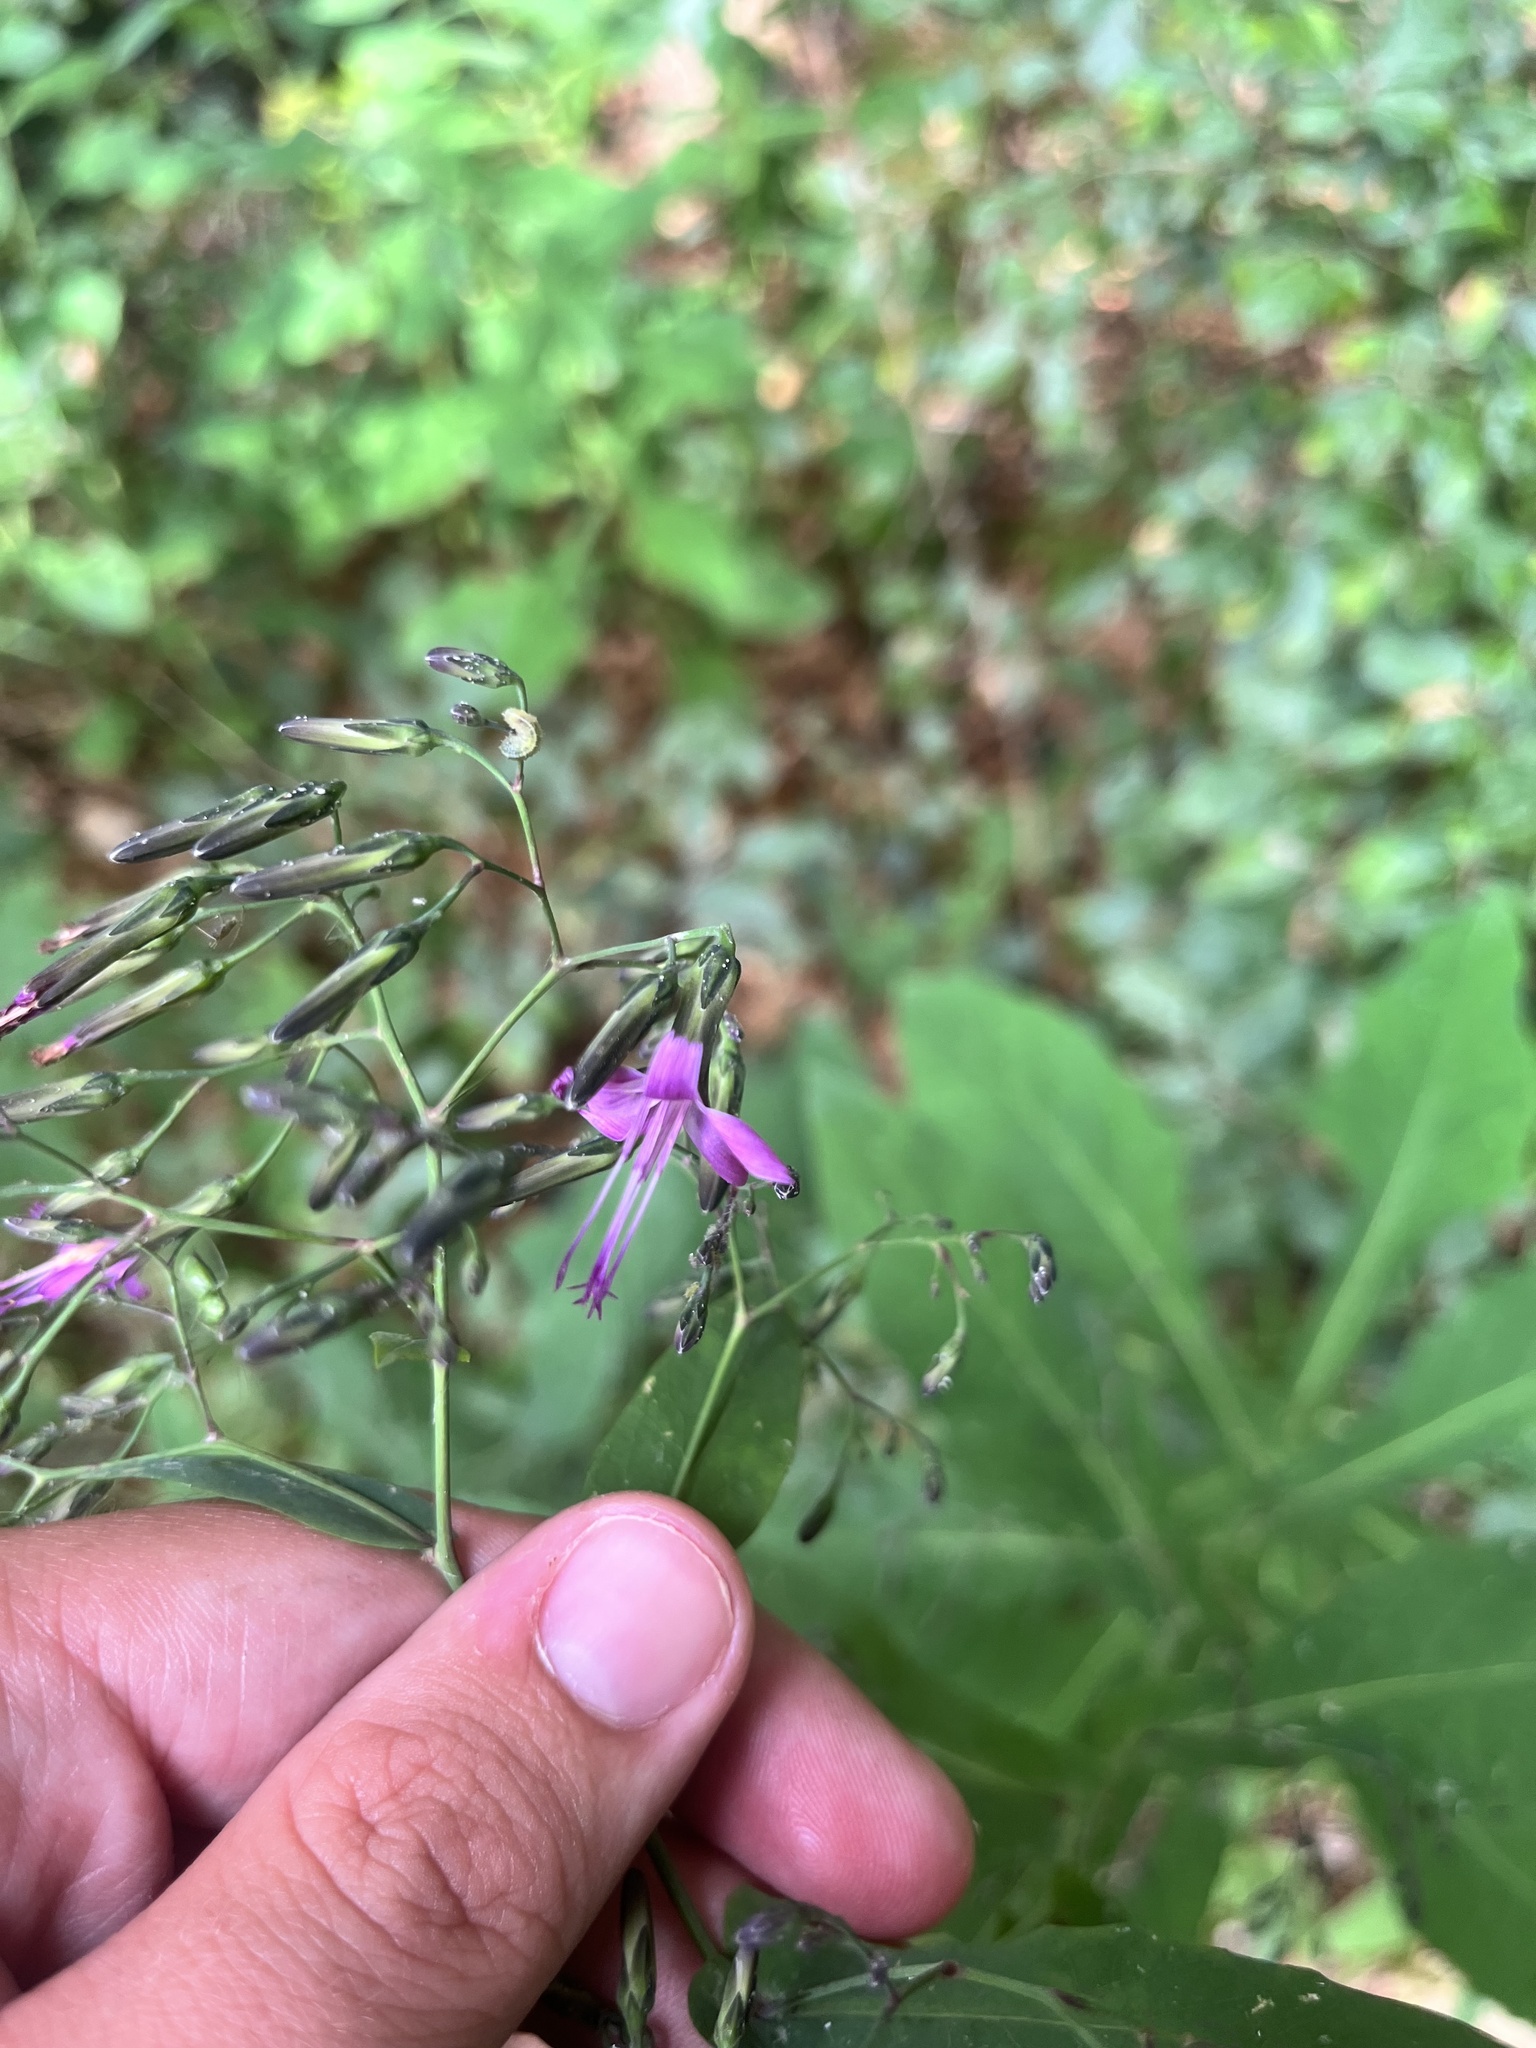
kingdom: Plantae
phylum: Tracheophyta
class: Magnoliopsida
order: Asterales
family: Asteraceae
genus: Prenanthes
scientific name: Prenanthes purpurea
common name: Purple lettuce
